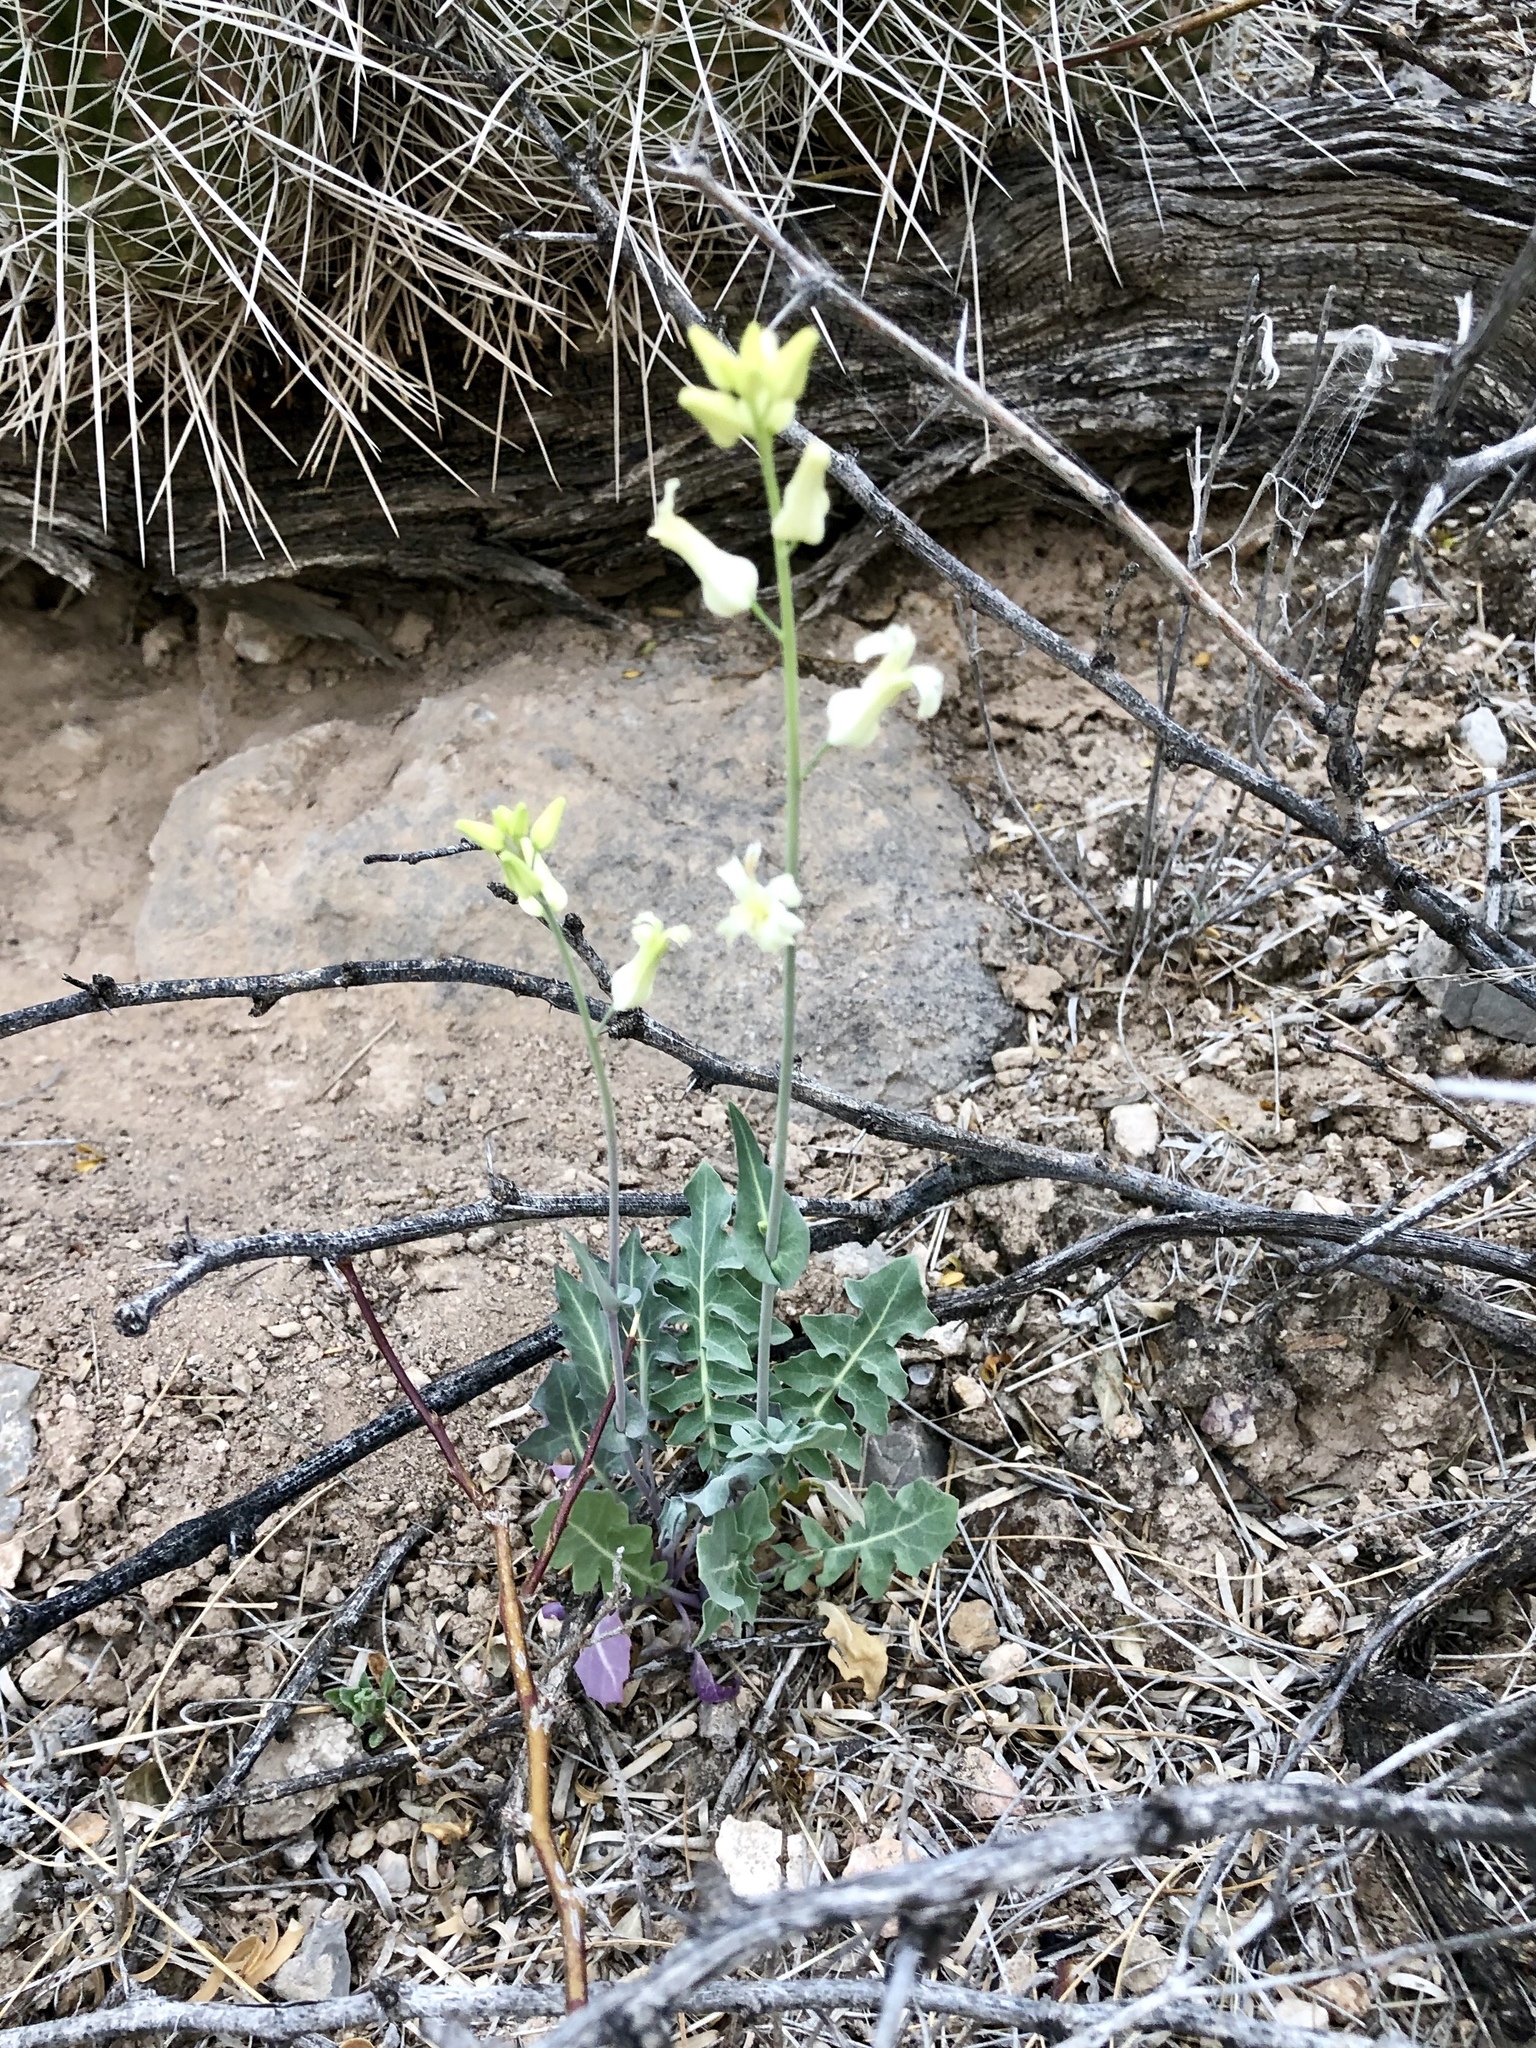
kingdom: Plantae
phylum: Tracheophyta
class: Magnoliopsida
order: Brassicales
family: Brassicaceae
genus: Streptanthus
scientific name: Streptanthus carinatus
